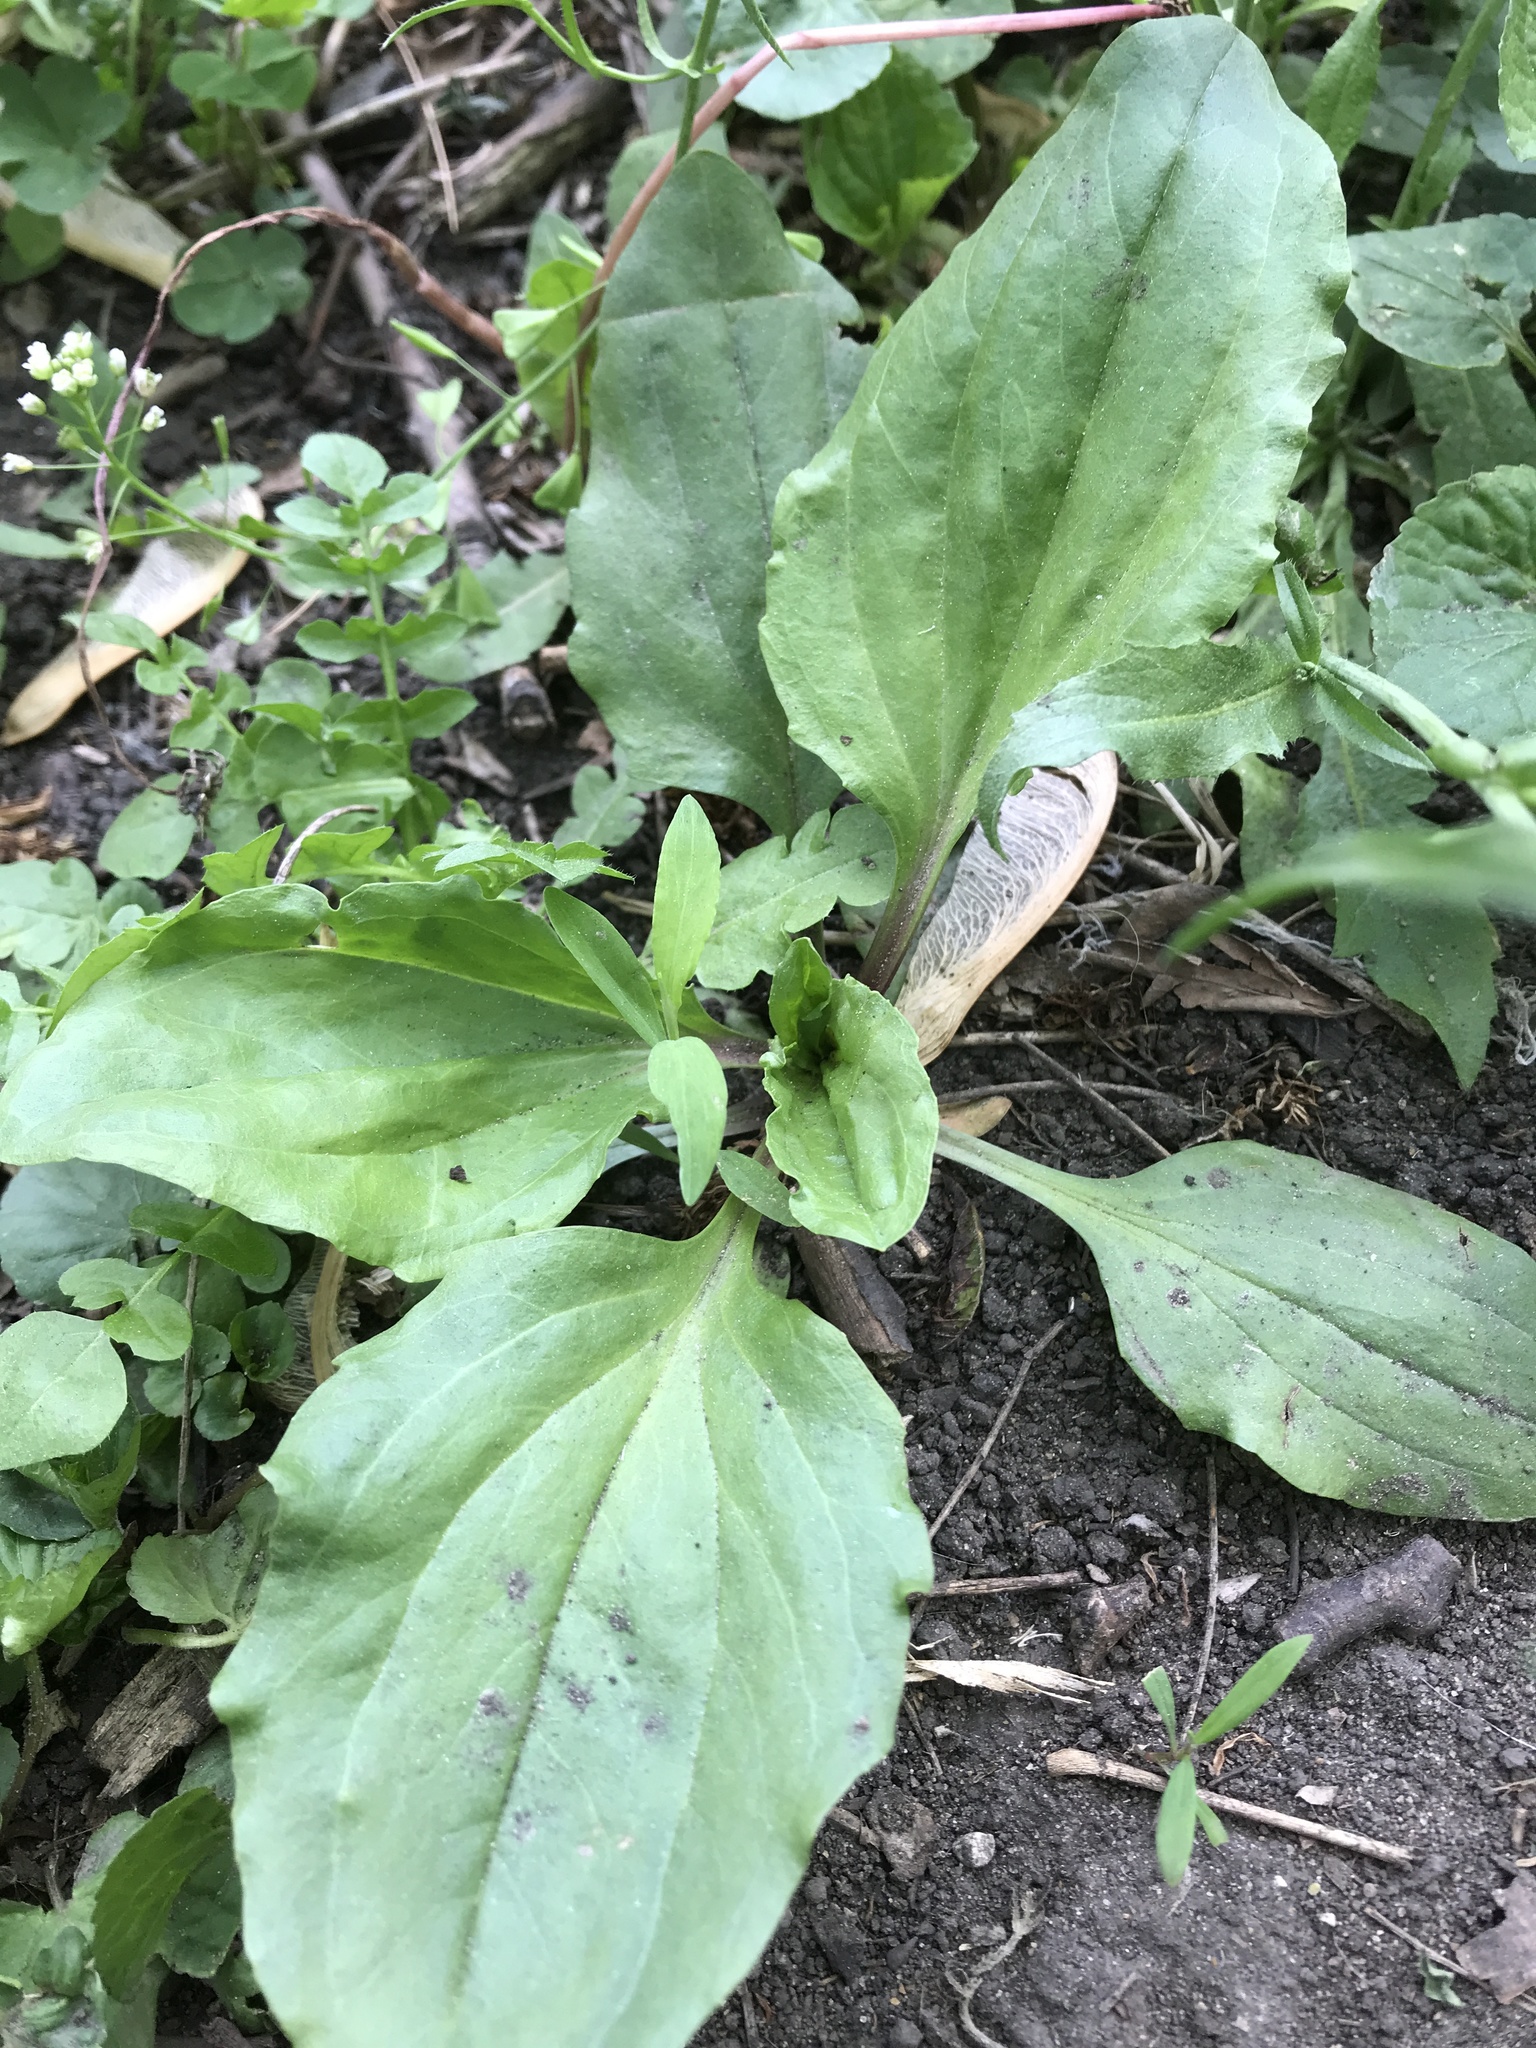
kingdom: Plantae
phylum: Tracheophyta
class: Magnoliopsida
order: Lamiales
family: Plantaginaceae
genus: Plantago
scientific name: Plantago rugelii
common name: American plantain
